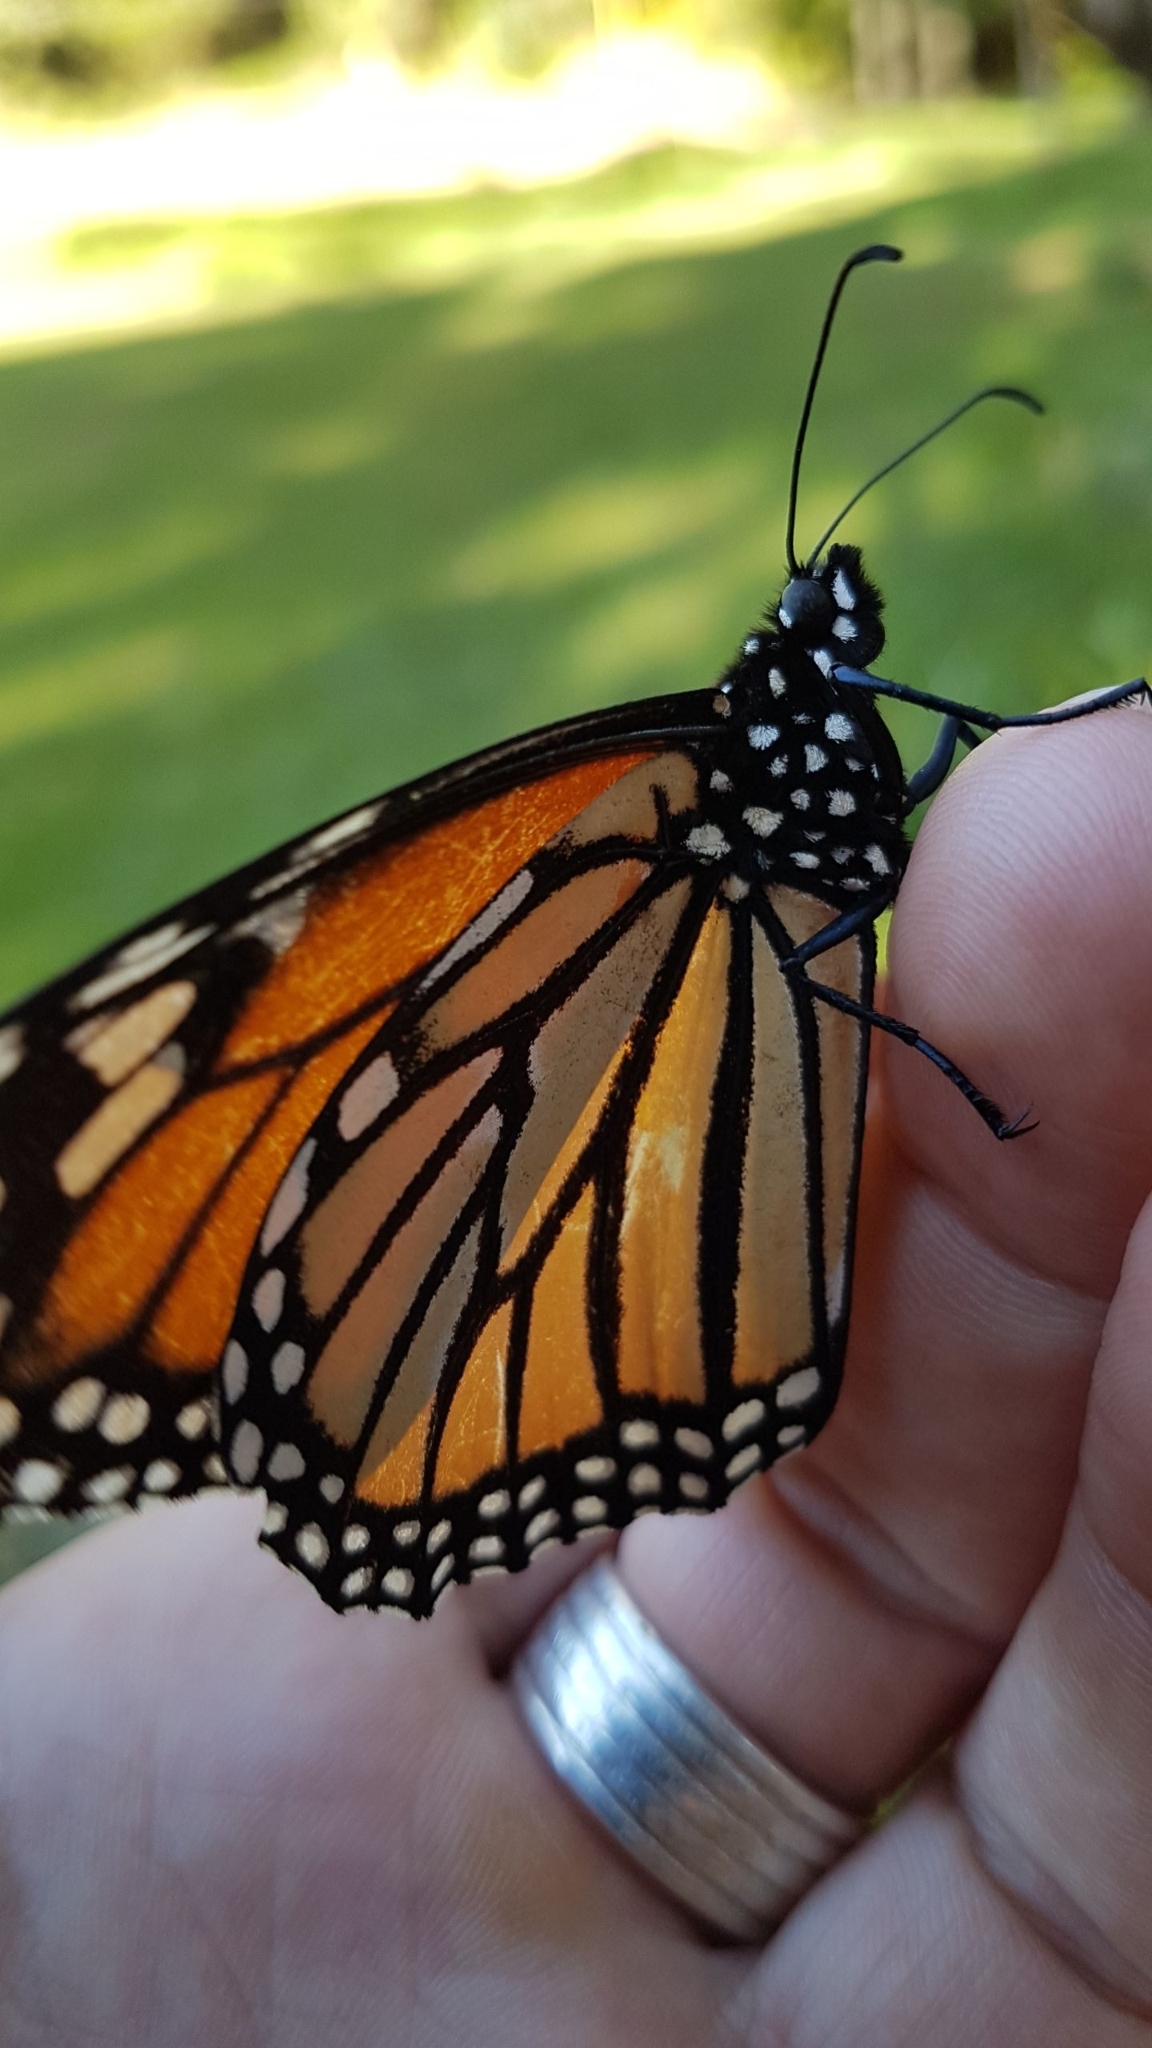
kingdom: Animalia
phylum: Arthropoda
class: Insecta
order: Lepidoptera
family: Nymphalidae
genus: Danaus
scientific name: Danaus plexippus
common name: Monarch
